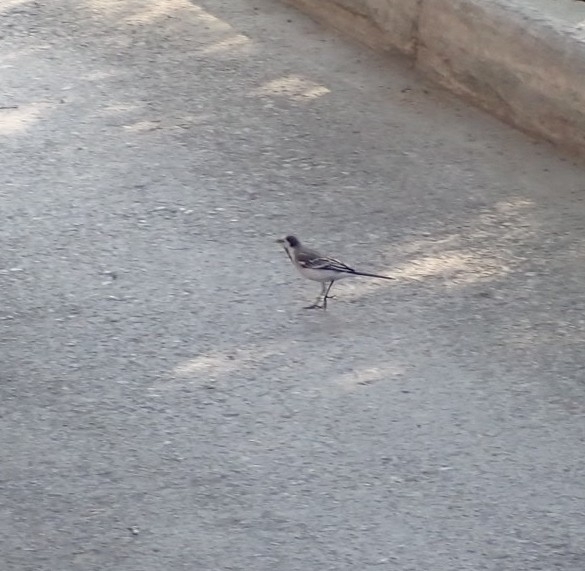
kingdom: Animalia
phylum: Chordata
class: Aves
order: Passeriformes
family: Motacillidae
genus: Motacilla
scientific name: Motacilla alba
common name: White wagtail
